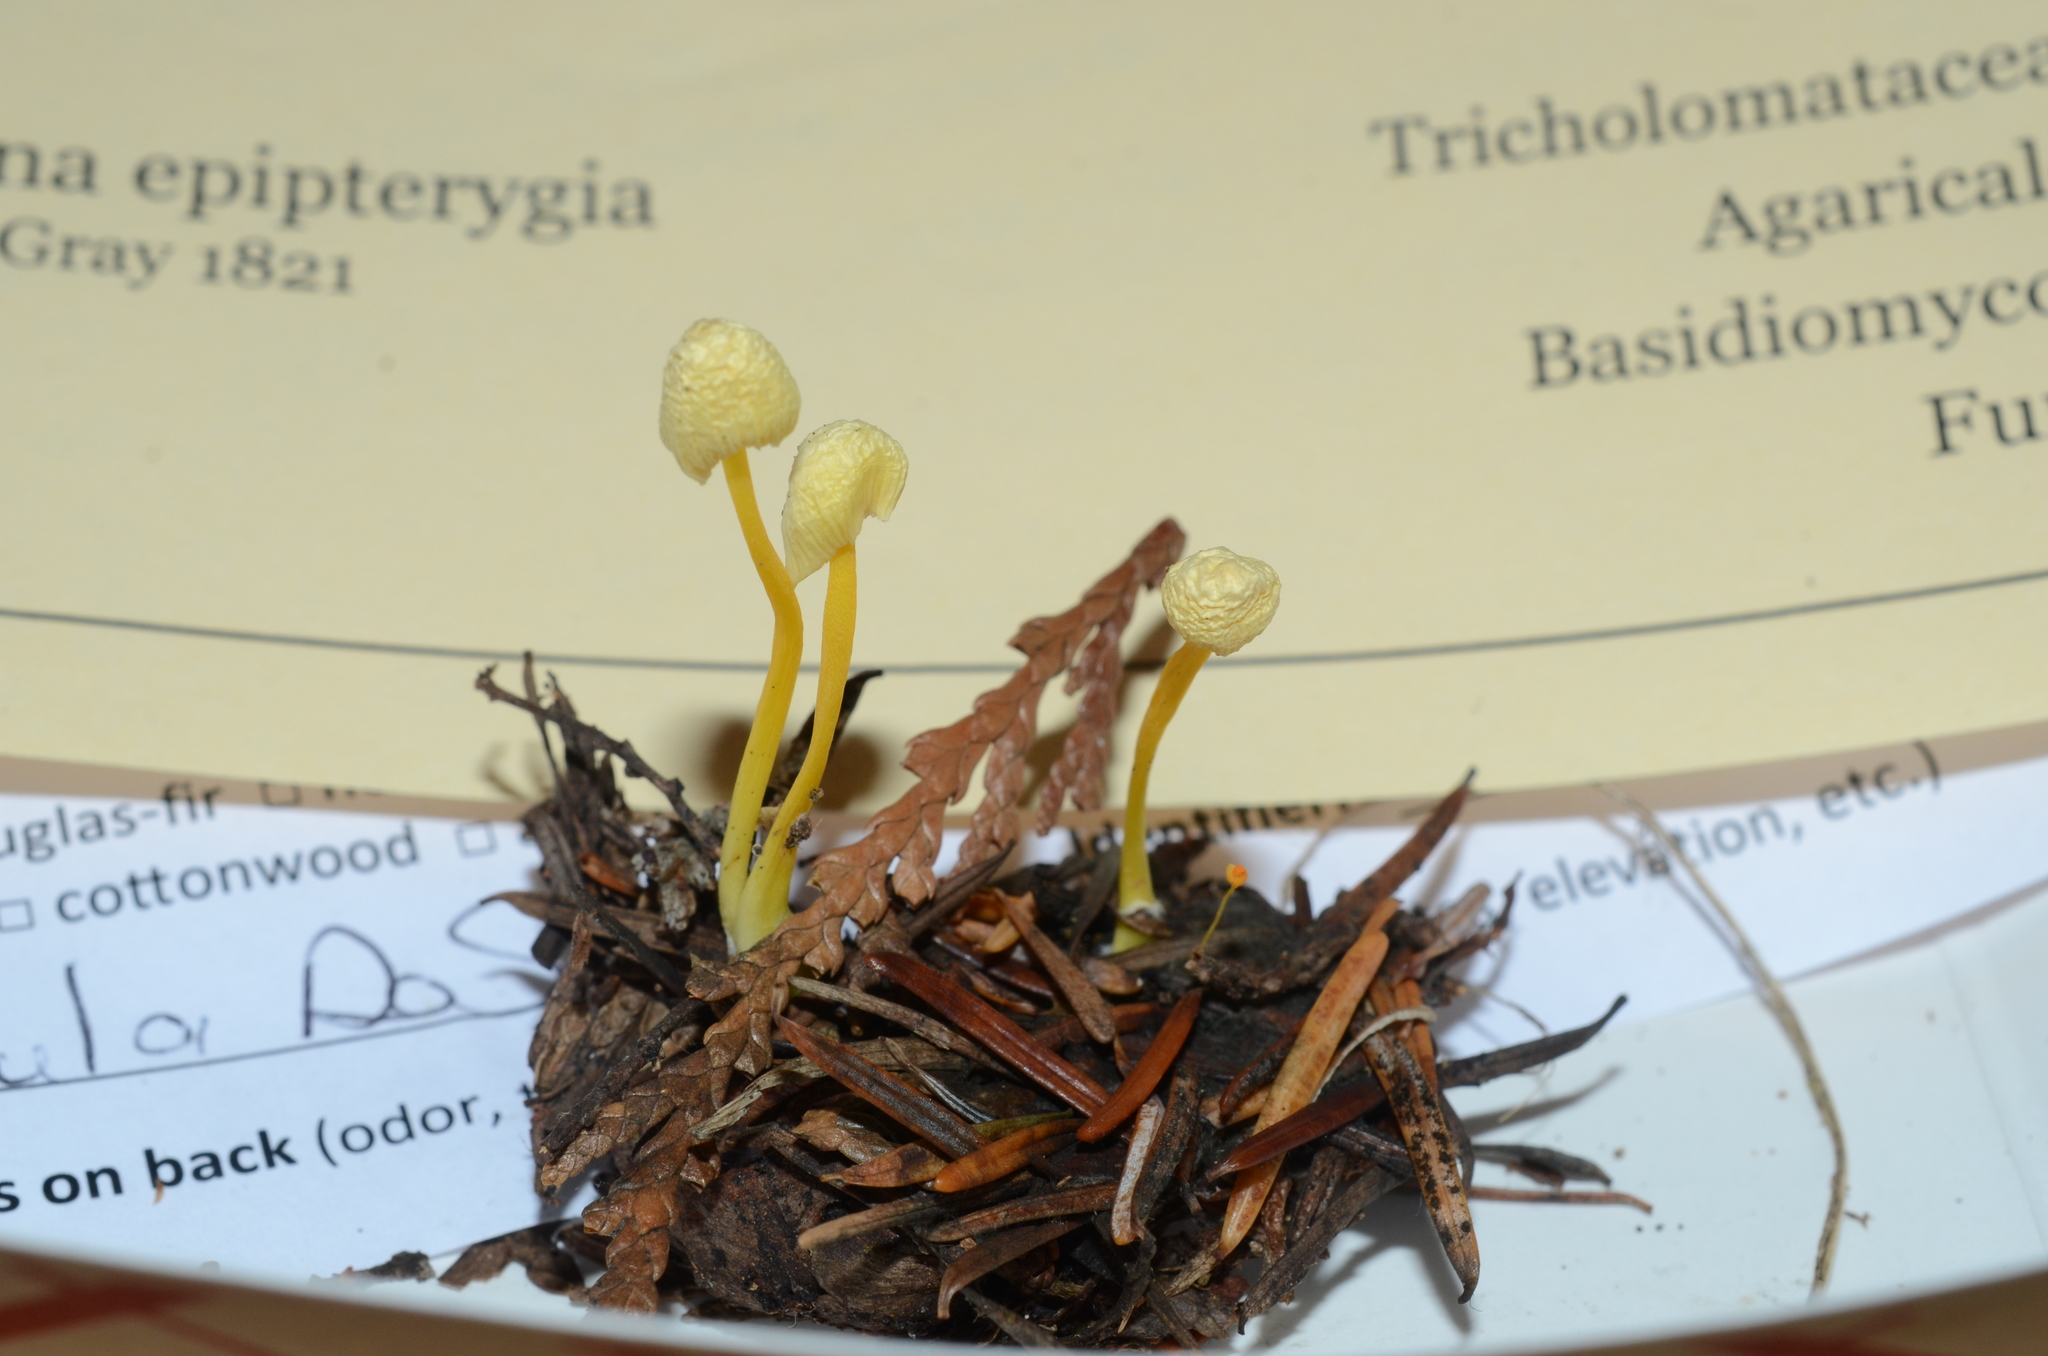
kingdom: Fungi
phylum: Basidiomycota
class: Agaricomycetes
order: Agaricales
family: Mycenaceae
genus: Mycena
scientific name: Mycena epipterygia
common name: Yellowleg bonnet
